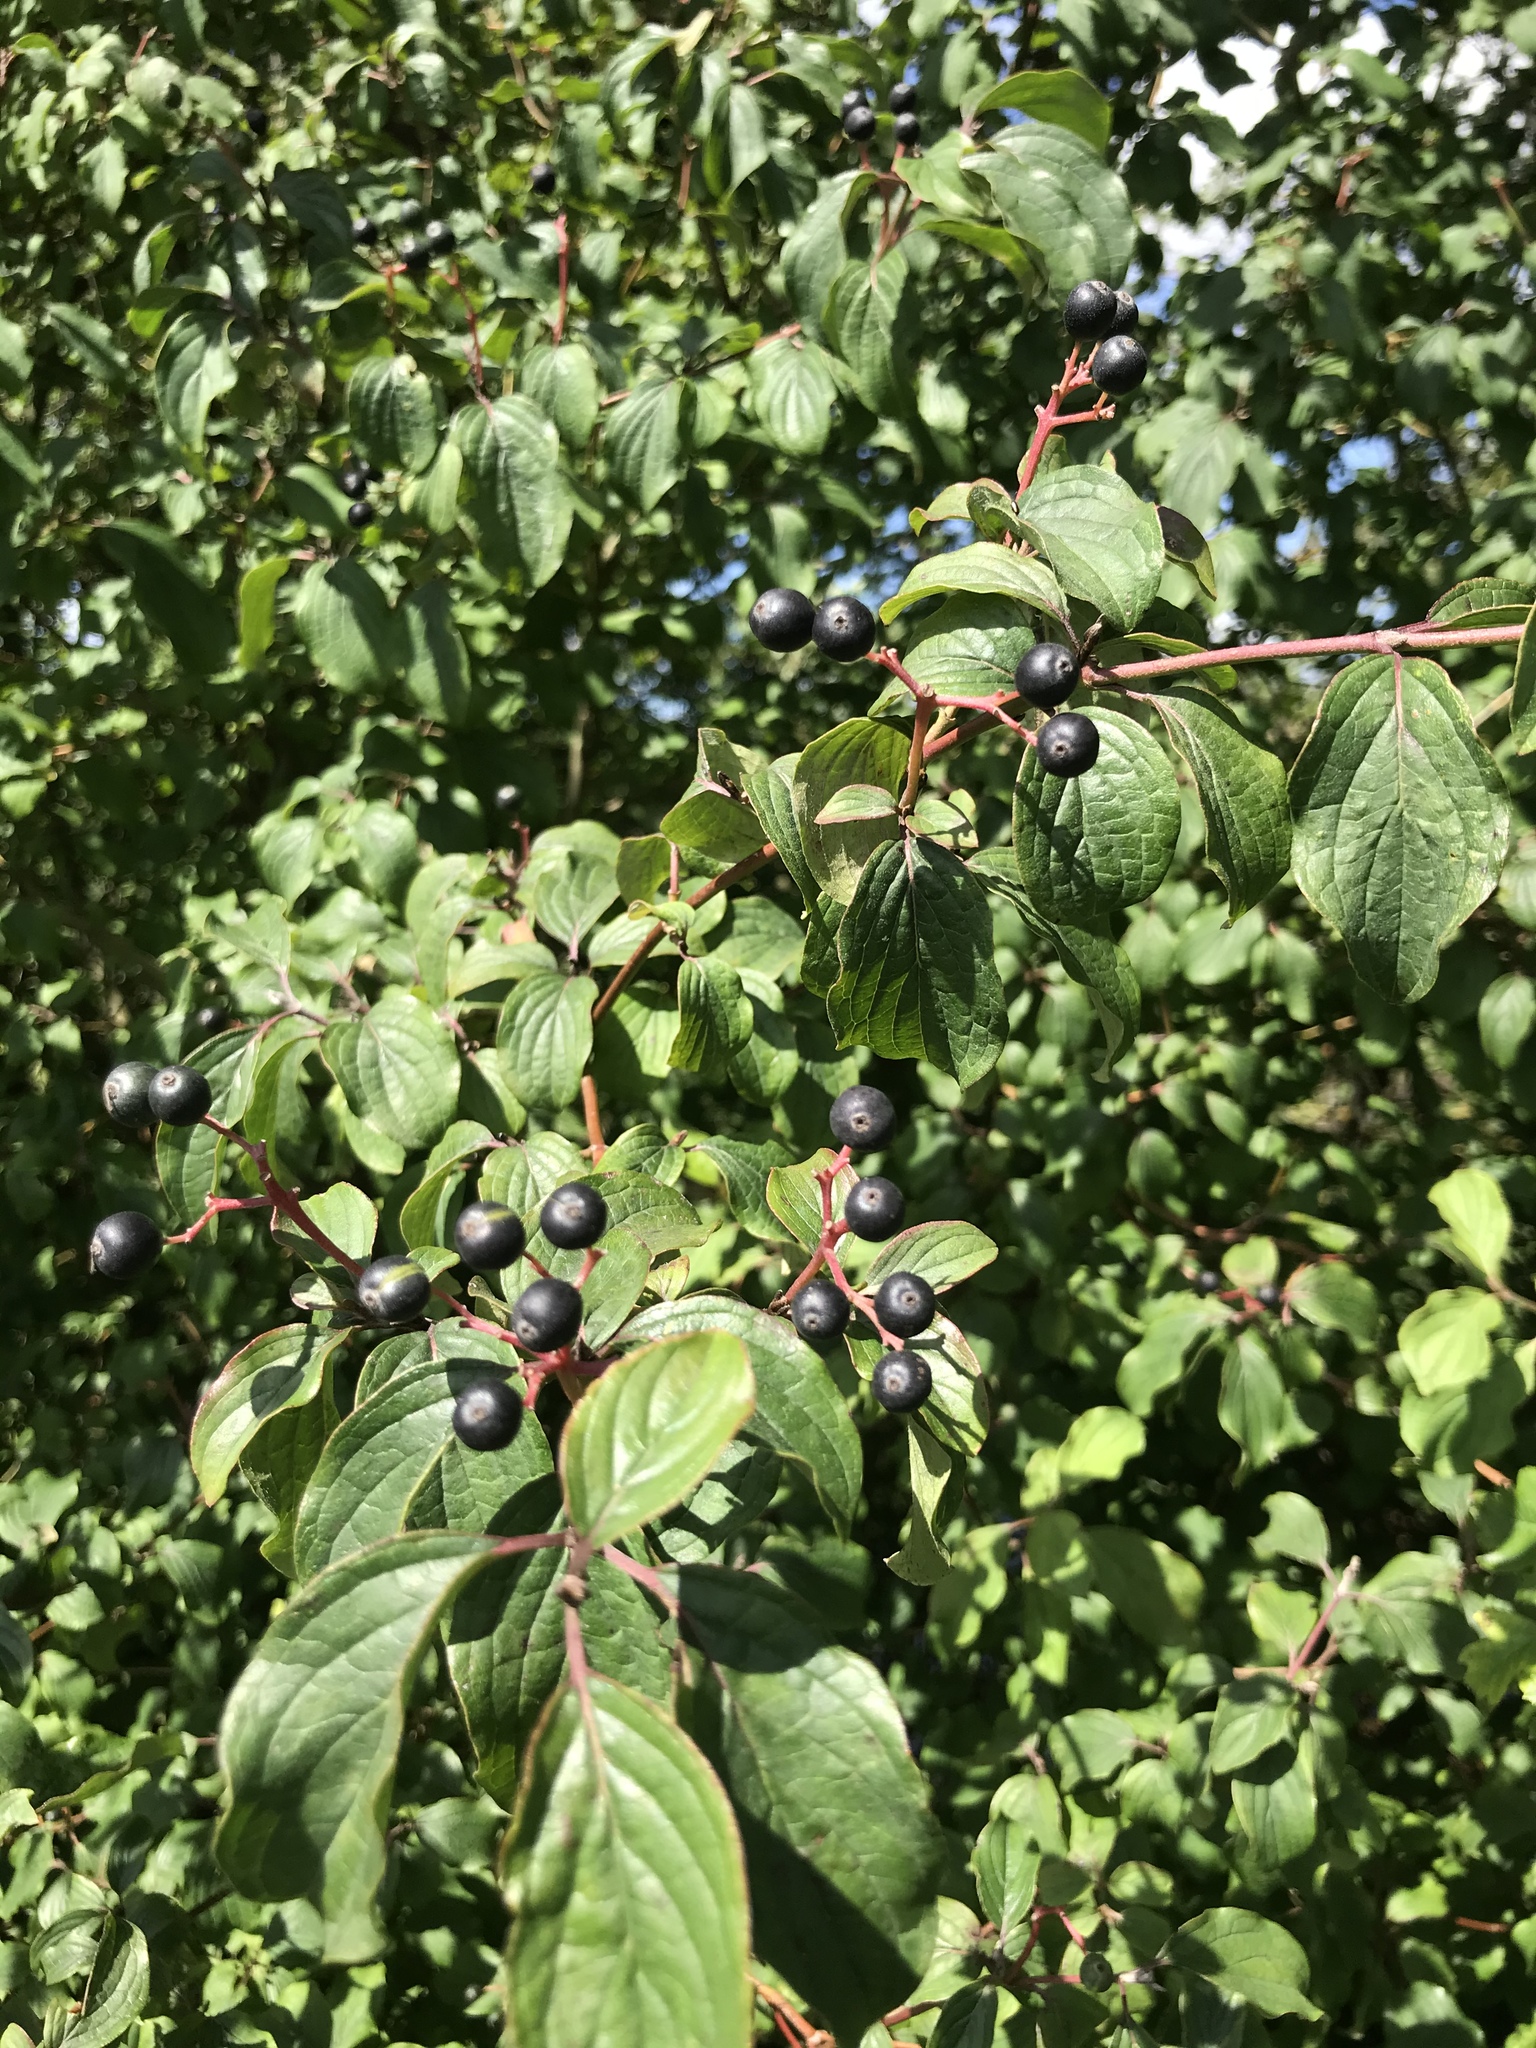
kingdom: Plantae
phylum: Tracheophyta
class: Magnoliopsida
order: Cornales
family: Cornaceae
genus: Cornus
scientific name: Cornus sanguinea
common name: Dogwood
